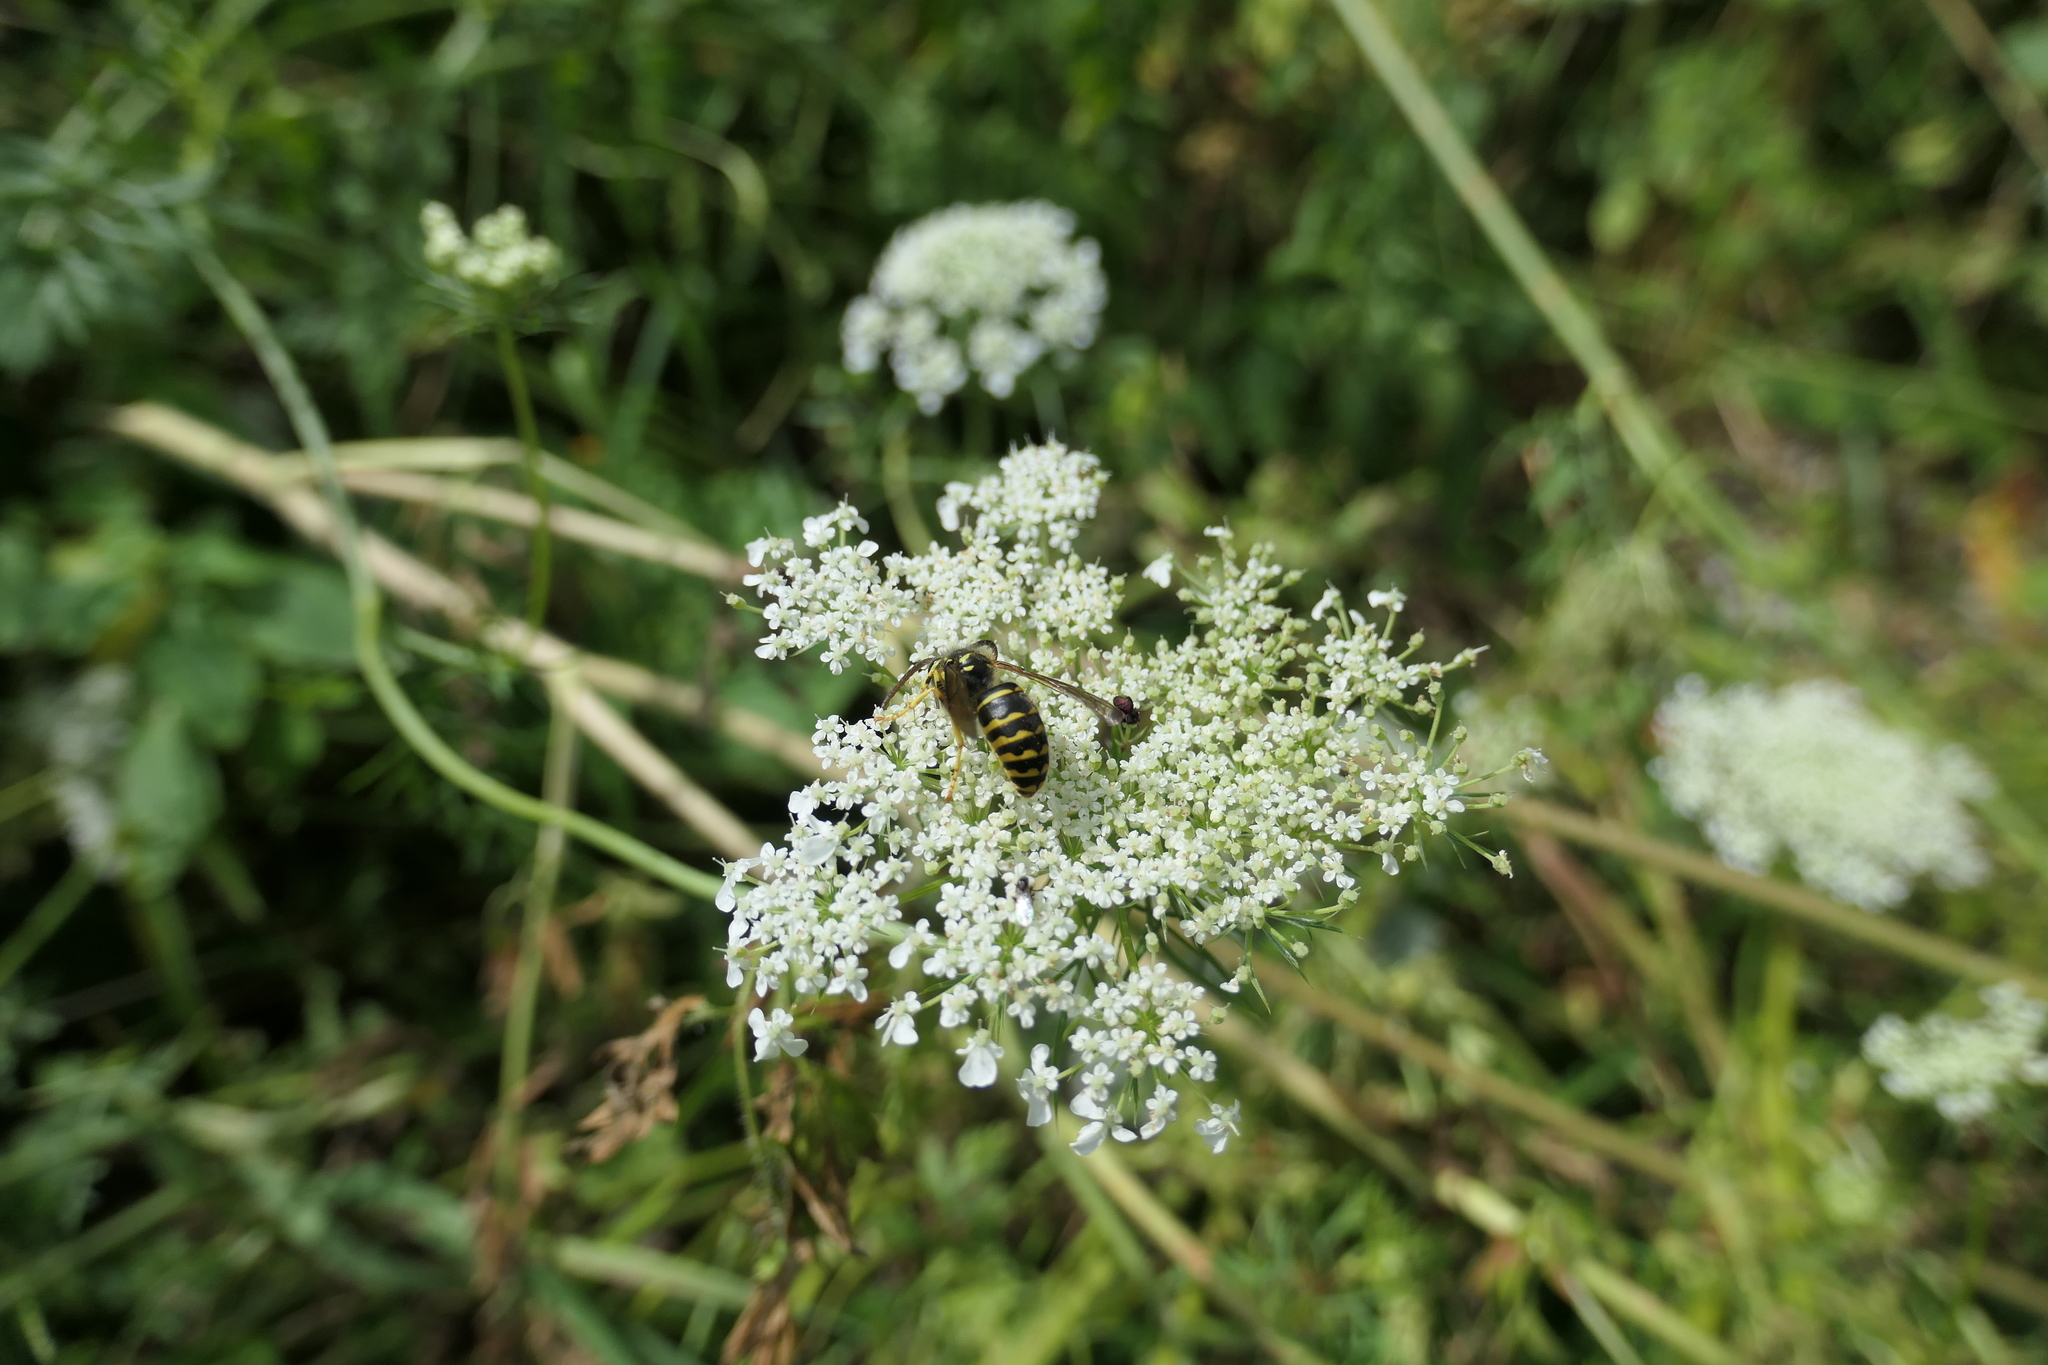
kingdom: Animalia
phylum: Arthropoda
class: Insecta
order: Hymenoptera
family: Vespidae
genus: Dolichovespula
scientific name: Dolichovespula arenaria
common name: Aerial yellowjacket
